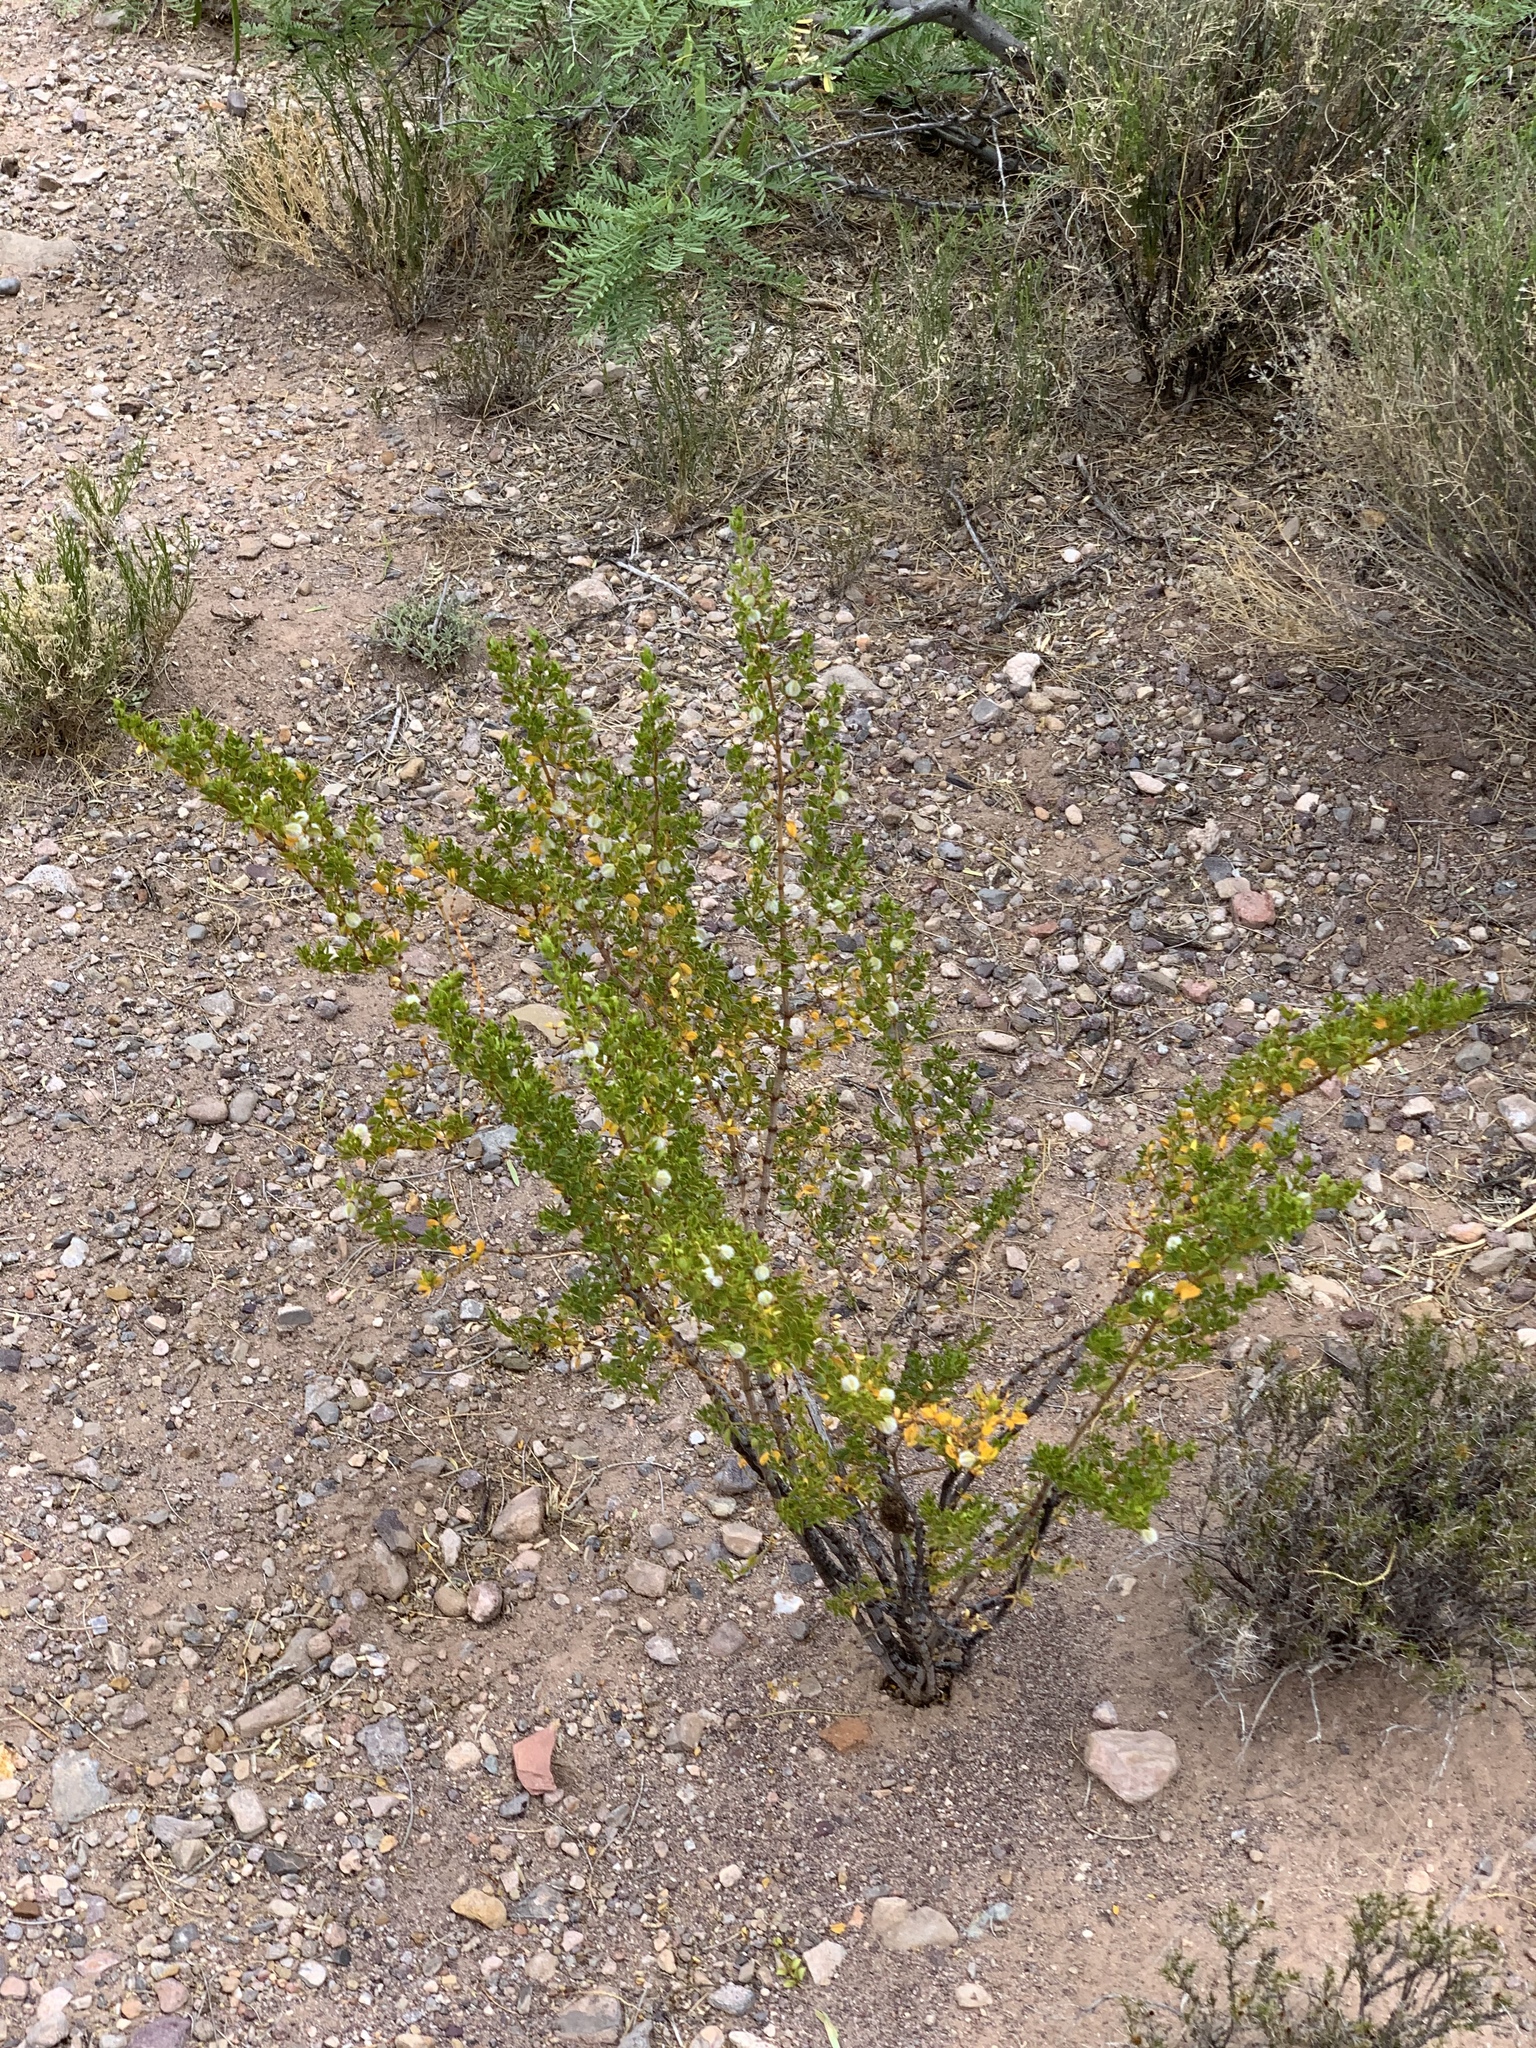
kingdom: Plantae
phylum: Tracheophyta
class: Magnoliopsida
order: Zygophyllales
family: Zygophyllaceae
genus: Larrea
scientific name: Larrea tridentata
